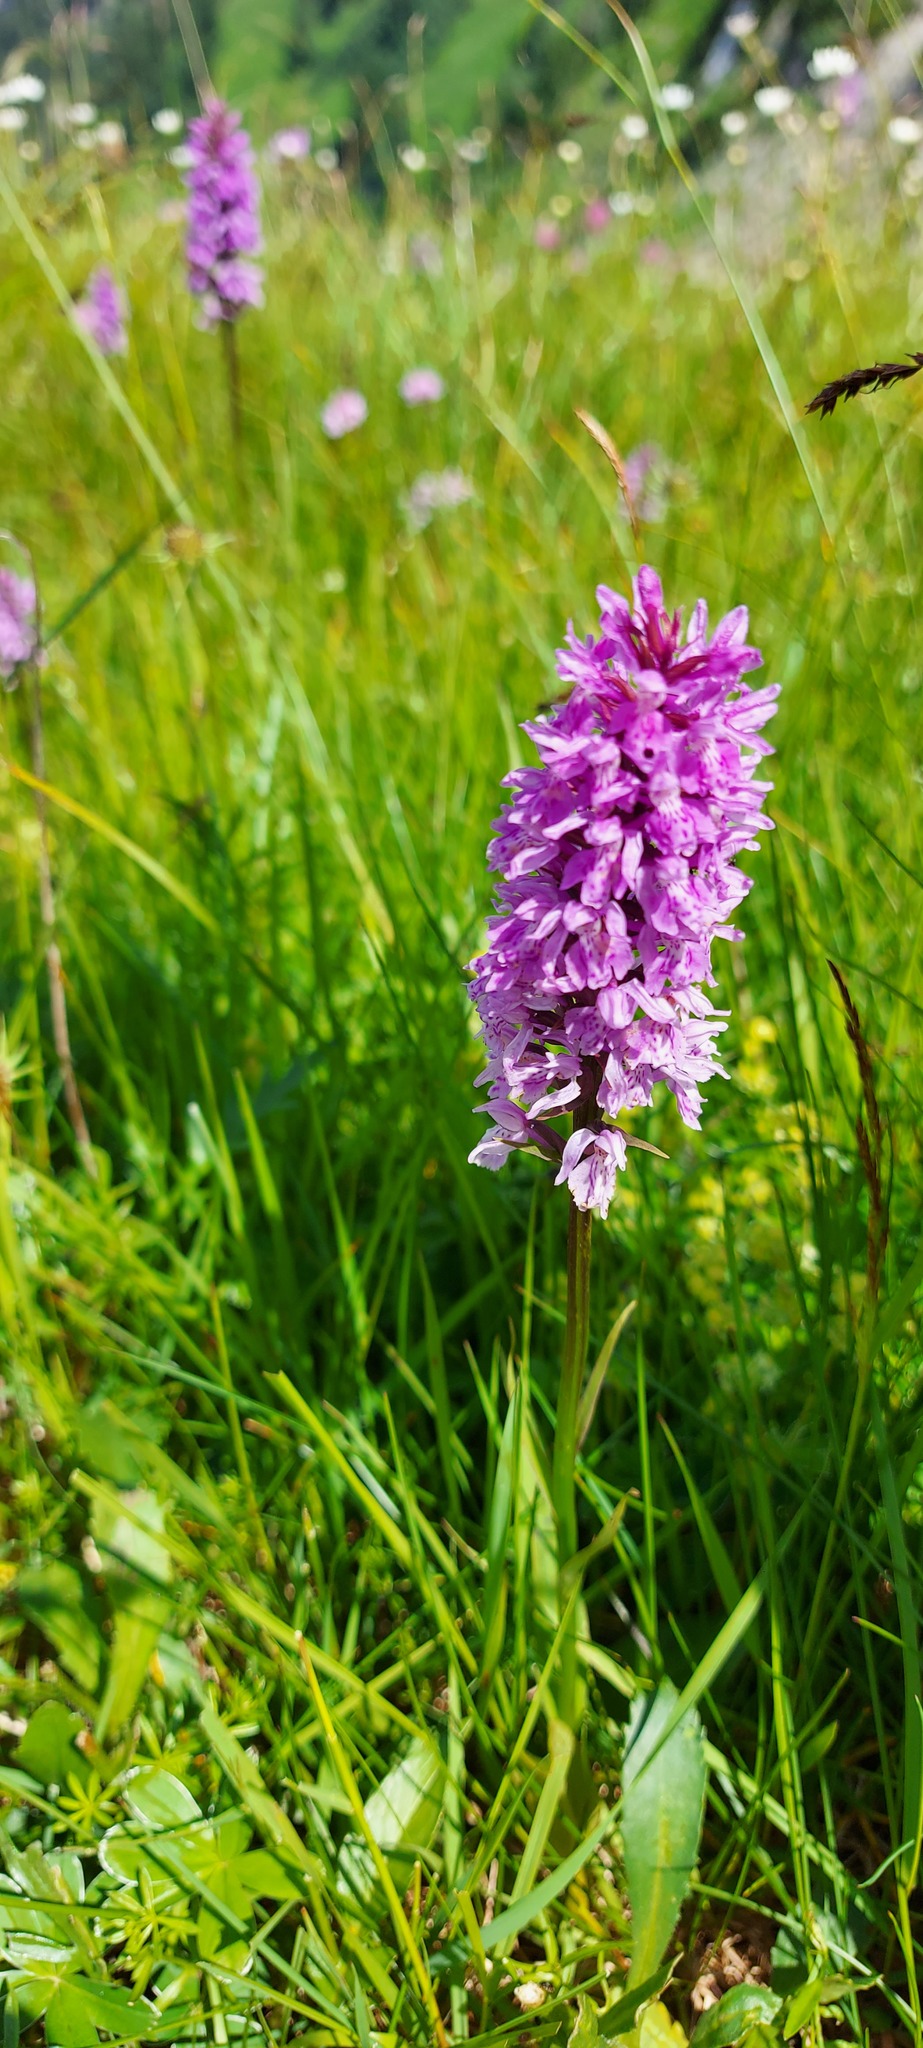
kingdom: Plantae
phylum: Tracheophyta
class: Liliopsida
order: Asparagales
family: Orchidaceae
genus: Dactylorhiza
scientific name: Dactylorhiza maculata
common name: Heath spotted-orchid
